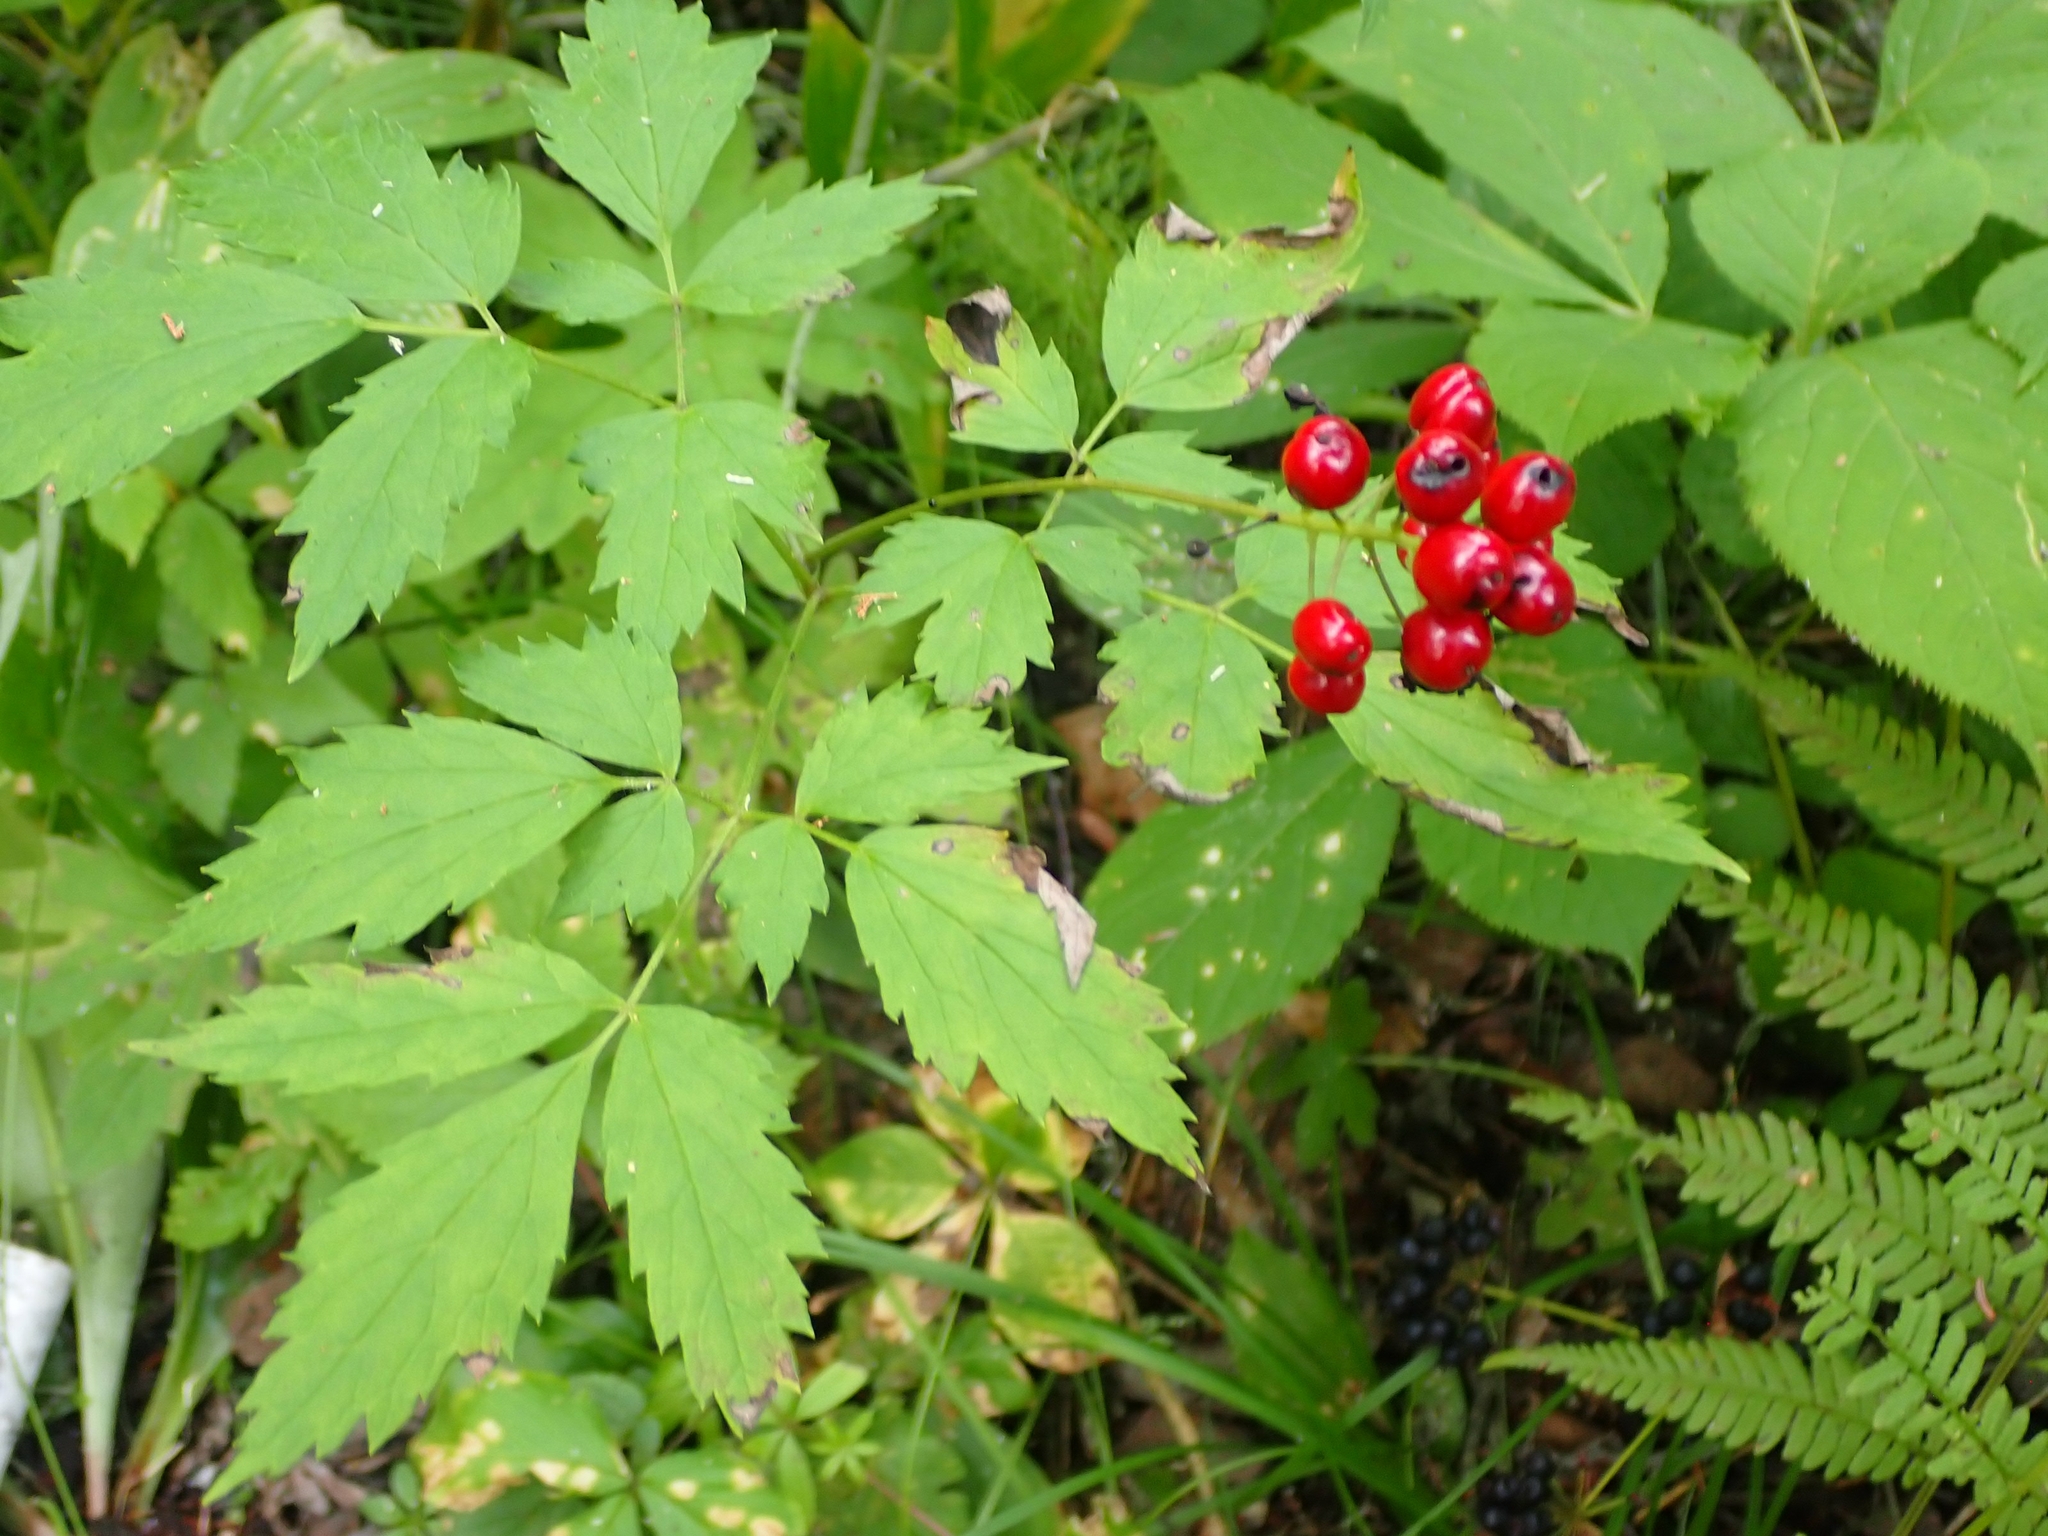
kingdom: Plantae
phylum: Tracheophyta
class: Magnoliopsida
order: Ranunculales
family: Ranunculaceae
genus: Actaea
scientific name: Actaea rubra
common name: Red baneberry
